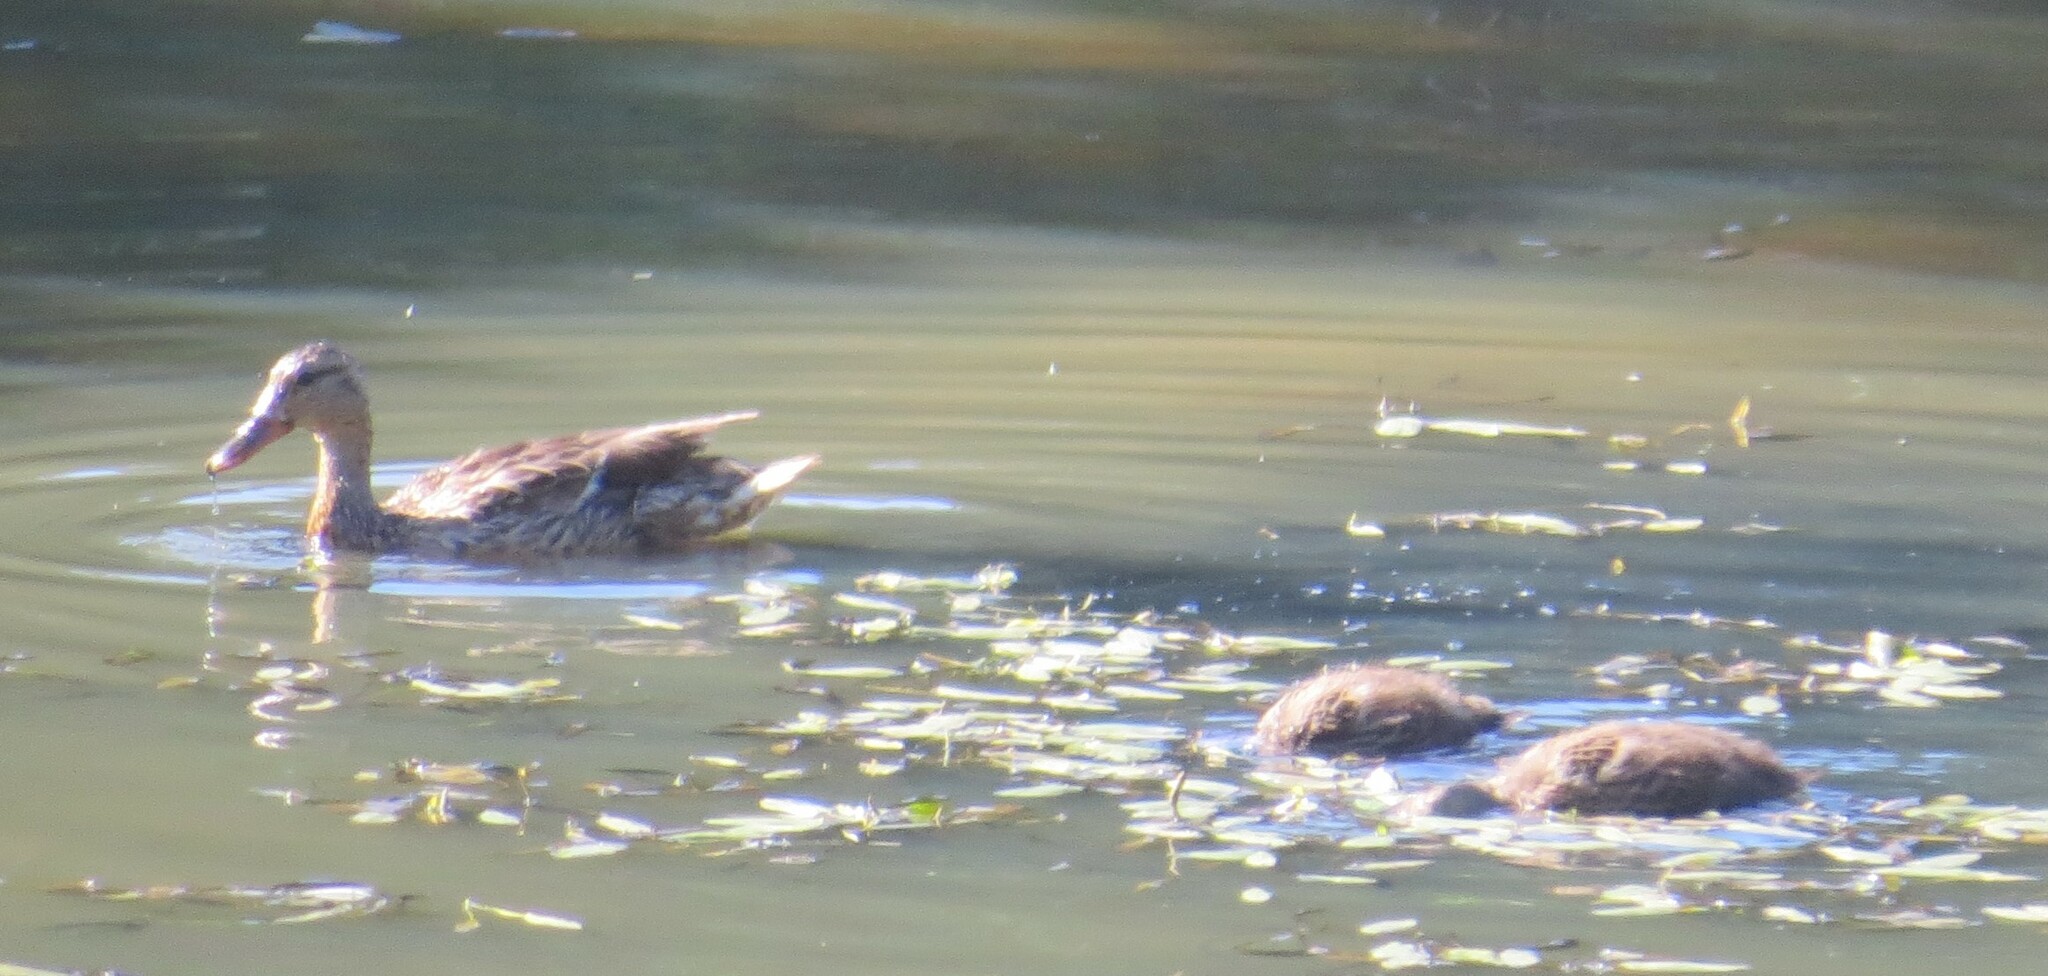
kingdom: Animalia
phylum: Chordata
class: Aves
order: Anseriformes
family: Anatidae
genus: Anas
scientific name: Anas platyrhynchos
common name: Mallard
